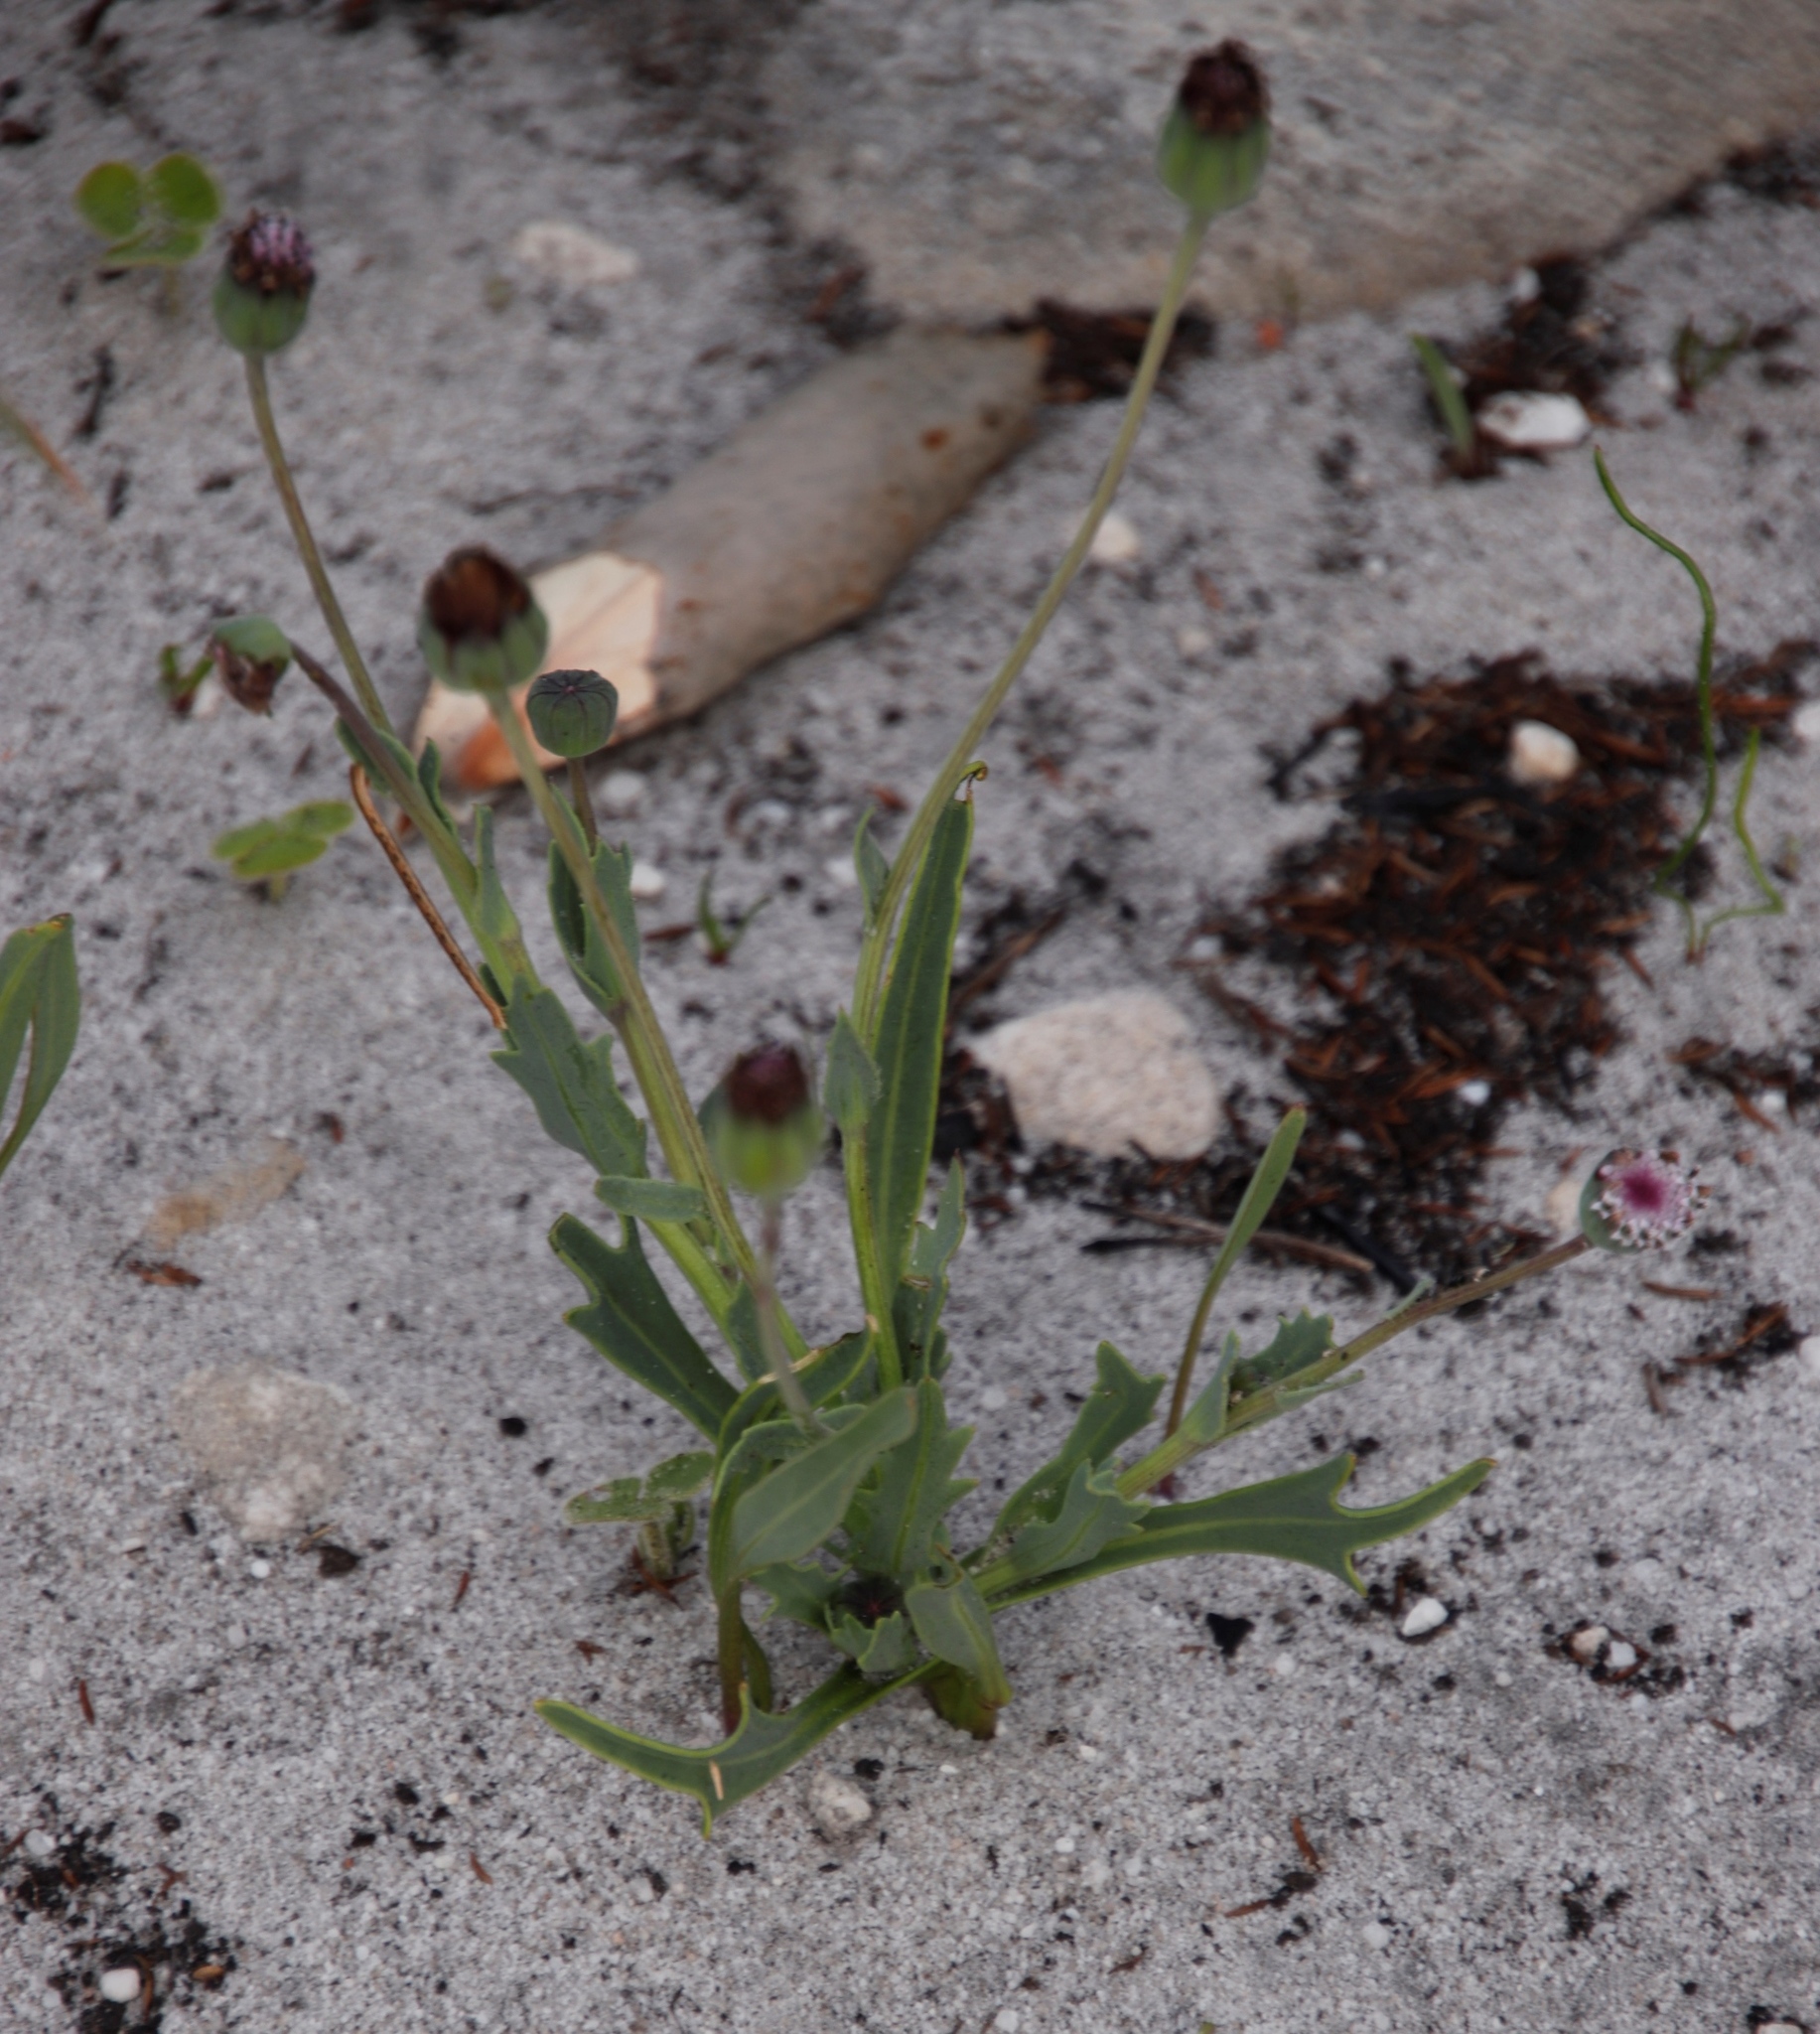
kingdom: Plantae
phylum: Tracheophyta
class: Magnoliopsida
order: Asterales
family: Asteraceae
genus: Othonna
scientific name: Othonna digitata
